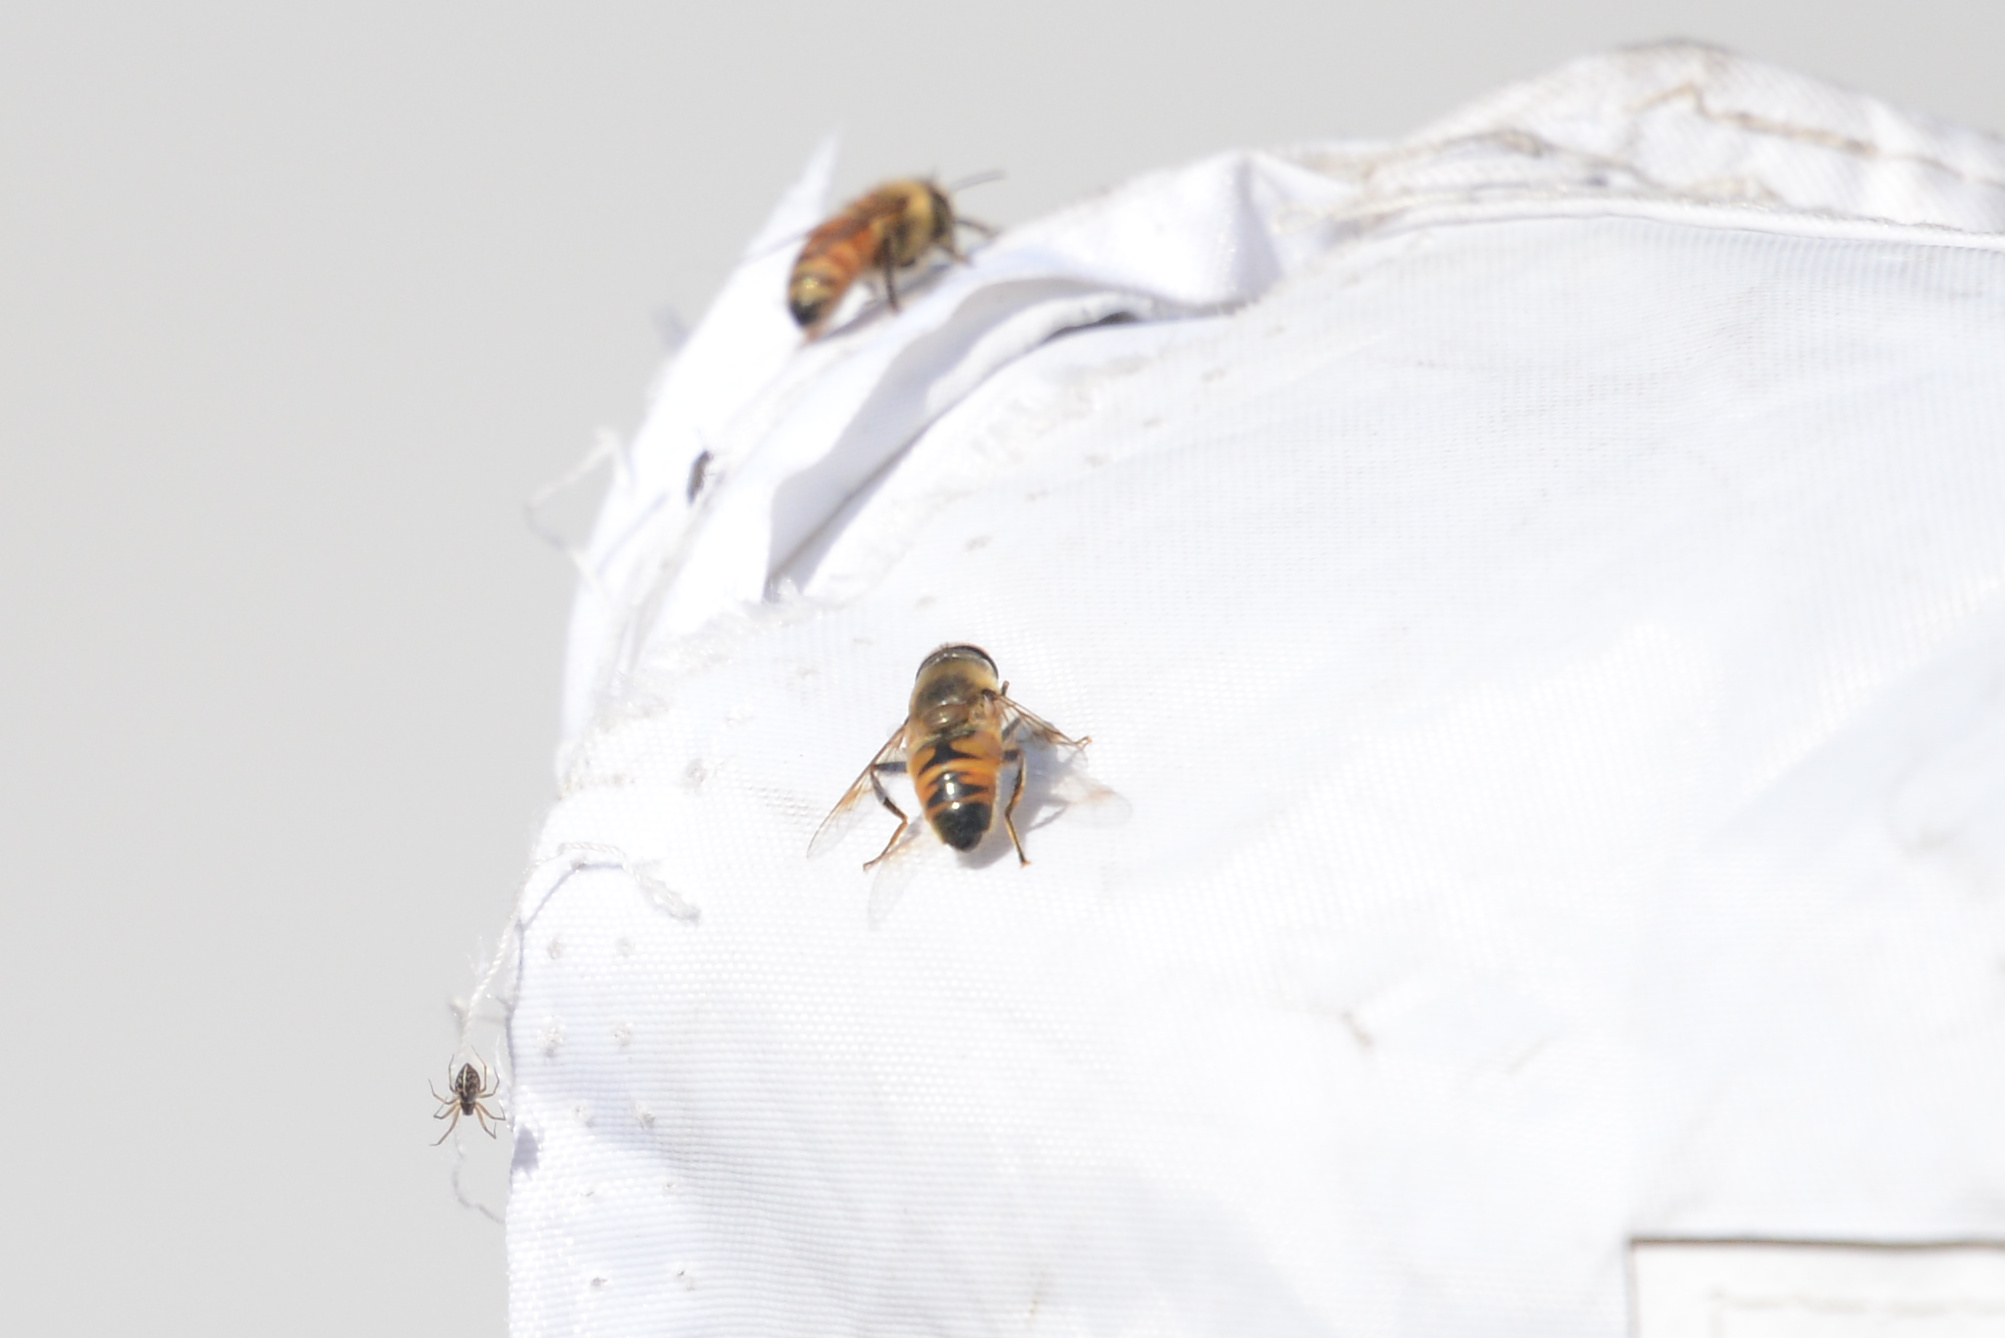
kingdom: Animalia
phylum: Arthropoda
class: Insecta
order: Diptera
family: Syrphidae
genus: Eristalis
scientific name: Eristalis tenax
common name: Drone fly
